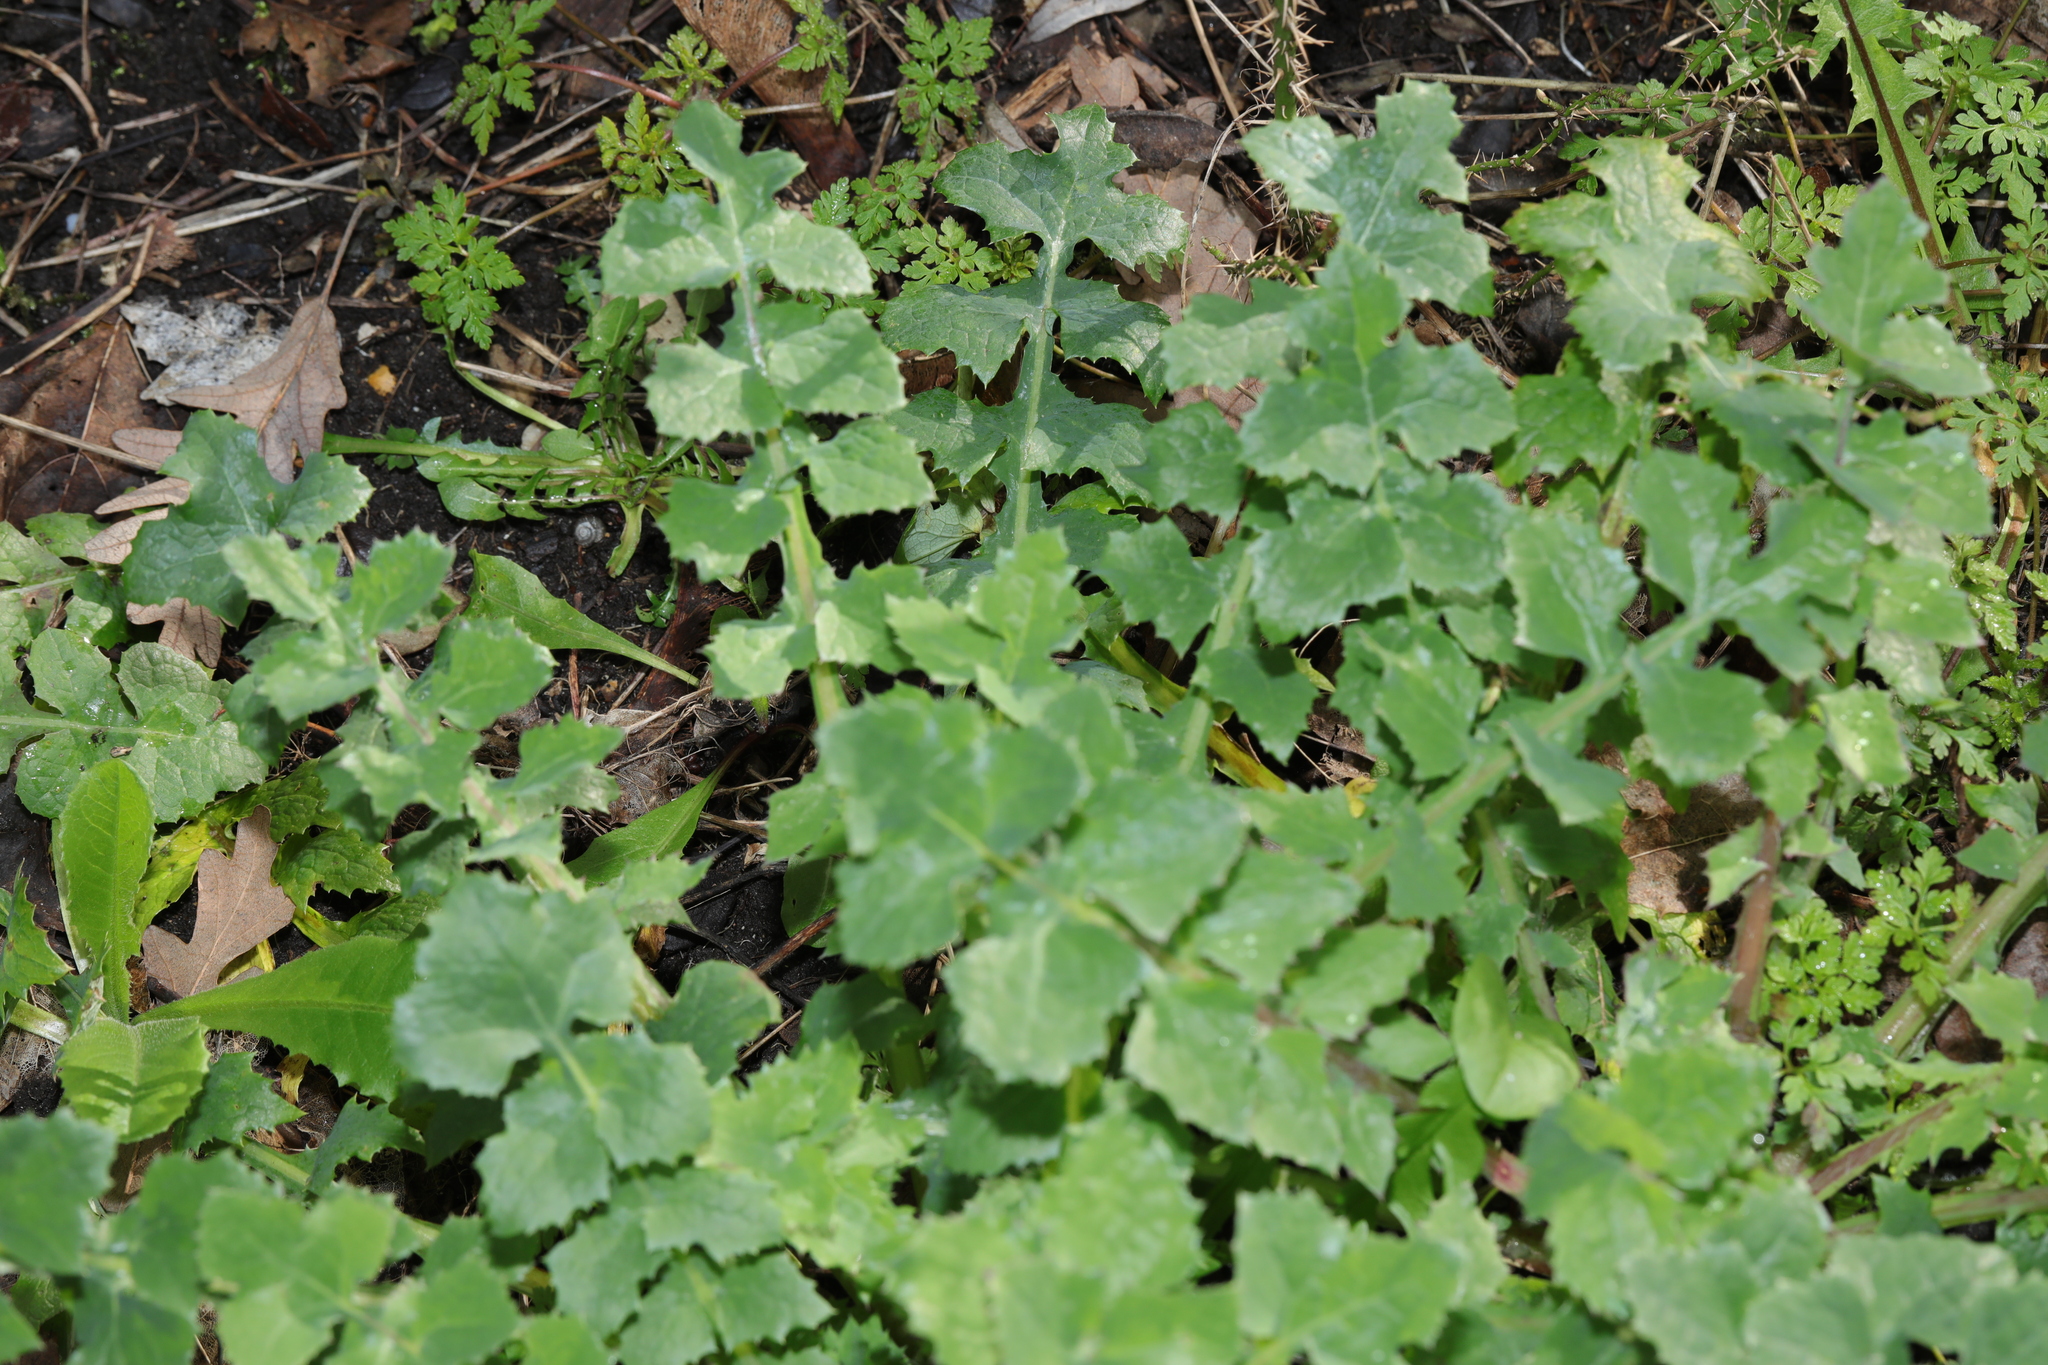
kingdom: Plantae
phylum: Tracheophyta
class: Magnoliopsida
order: Asterales
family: Asteraceae
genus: Sonchus
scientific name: Sonchus oleraceus
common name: Common sowthistle
